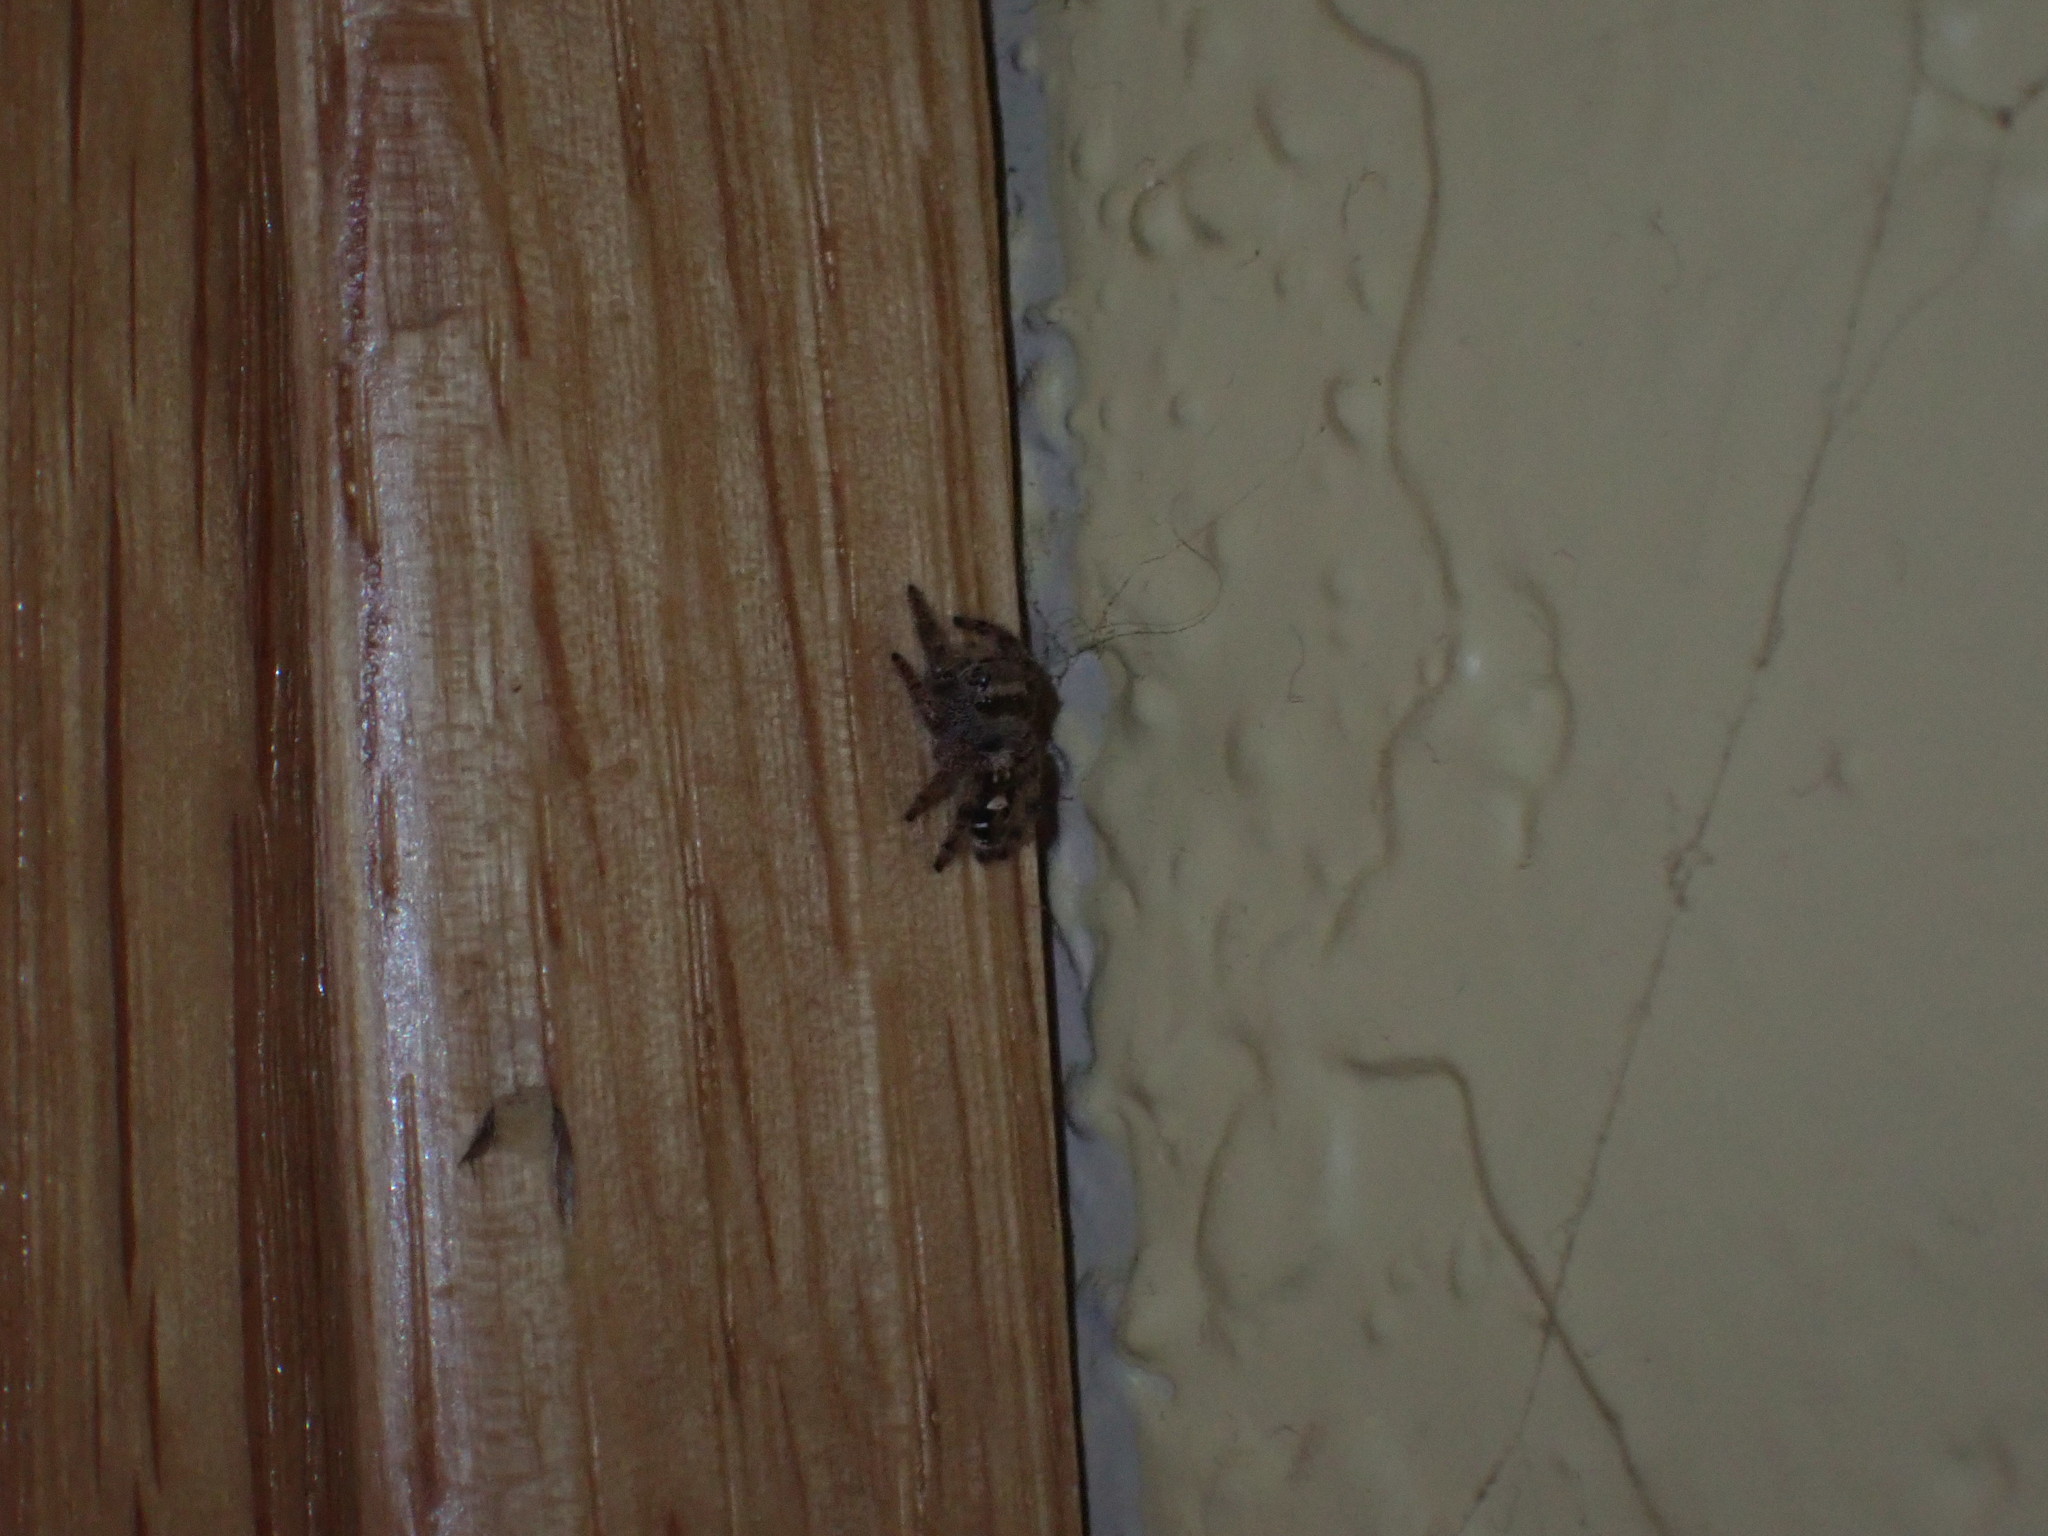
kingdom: Animalia
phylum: Arthropoda
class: Arachnida
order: Araneae
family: Salticidae
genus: Phidippus
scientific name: Phidippus audax
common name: Bold jumper
